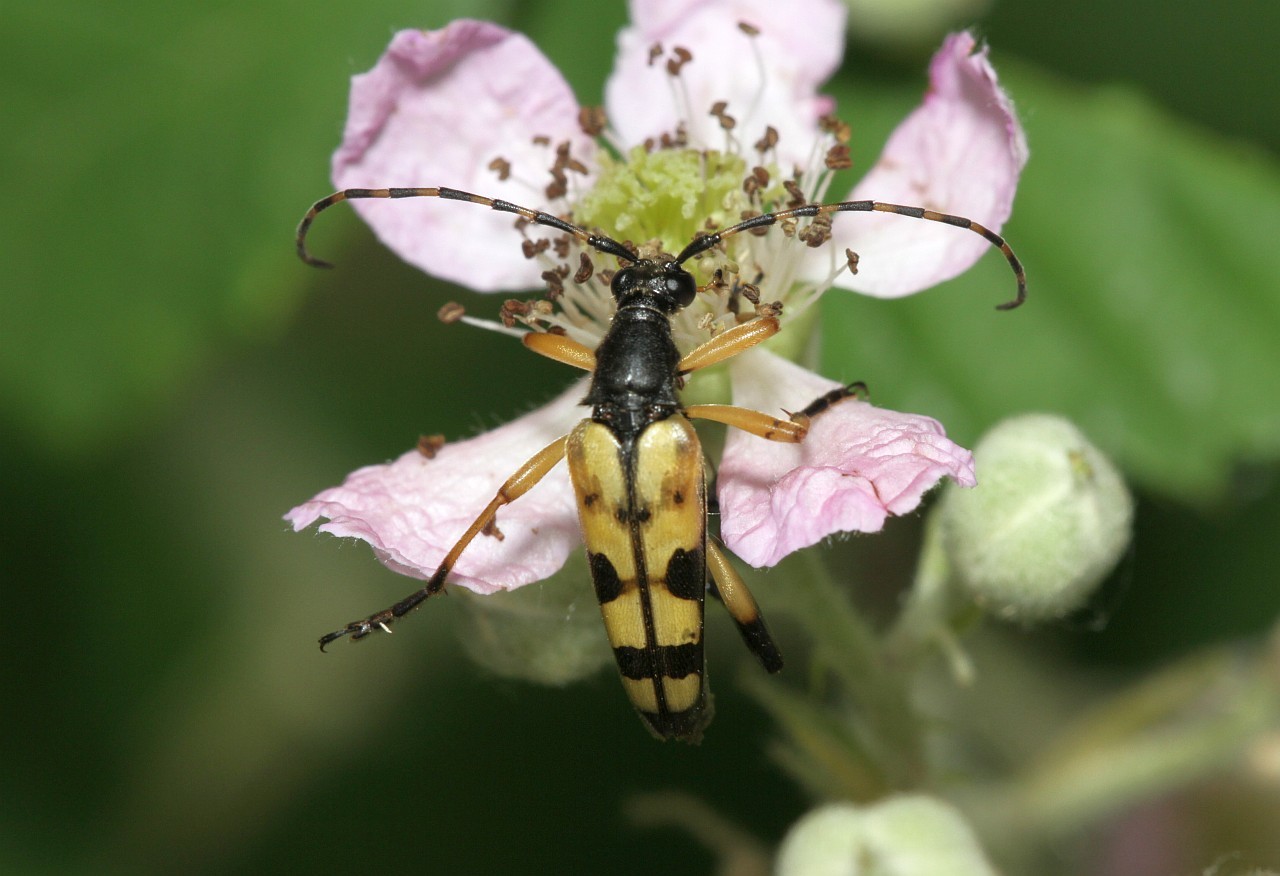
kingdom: Animalia
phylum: Arthropoda
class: Insecta
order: Coleoptera
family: Cerambycidae
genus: Rutpela
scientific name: Rutpela maculata
